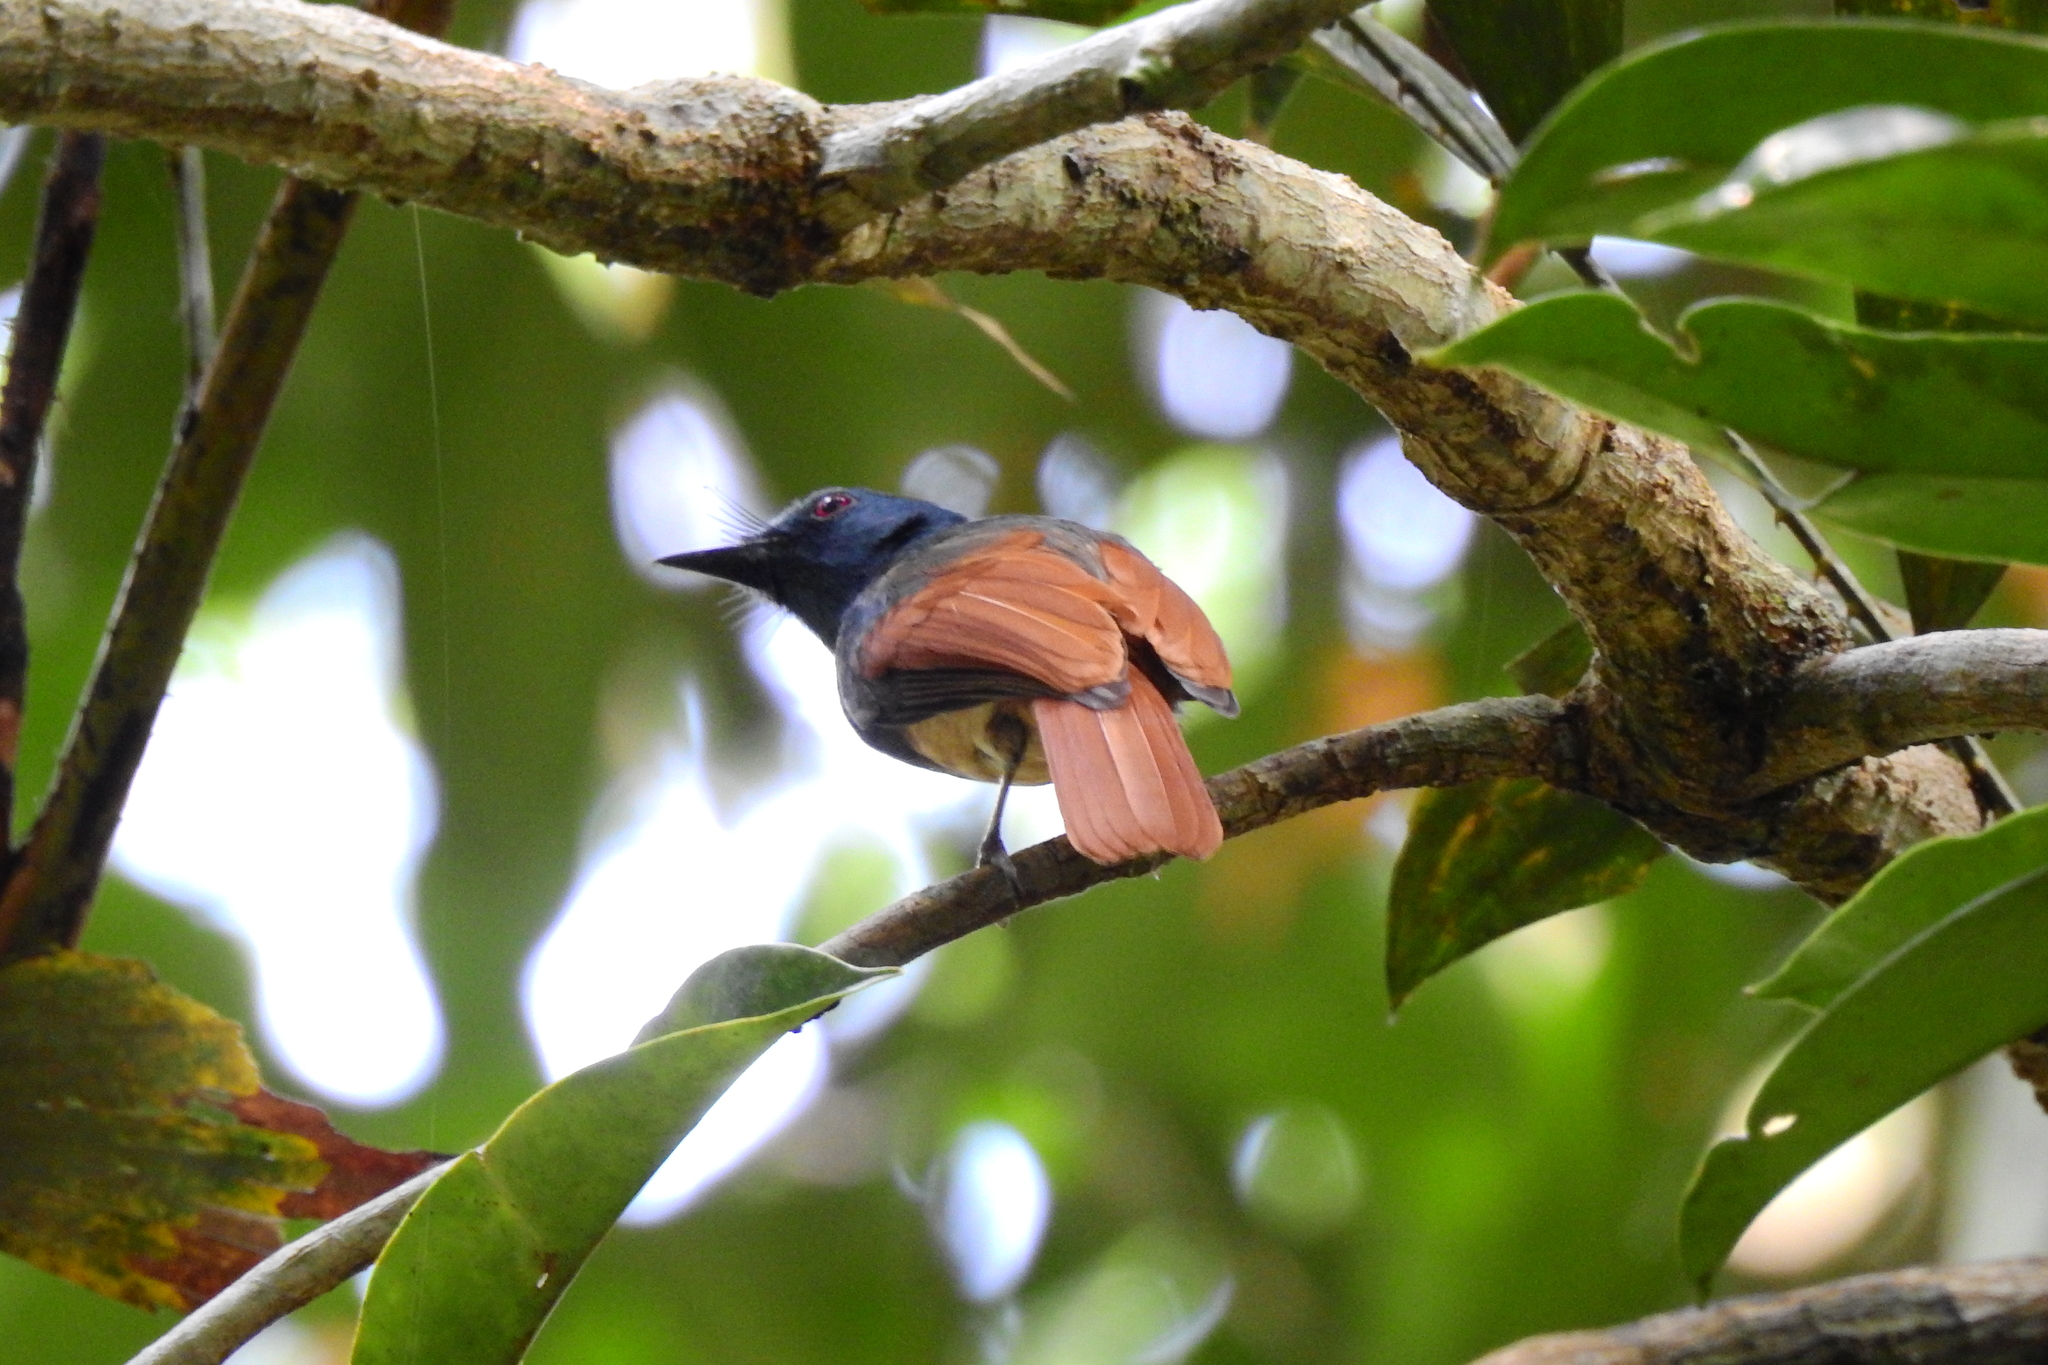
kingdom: Animalia
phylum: Chordata
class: Aves
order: Passeriformes
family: Tephrodornithidae
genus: Philentoma
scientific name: Philentoma pyrhoptera
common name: Rufous-winged philentoma
